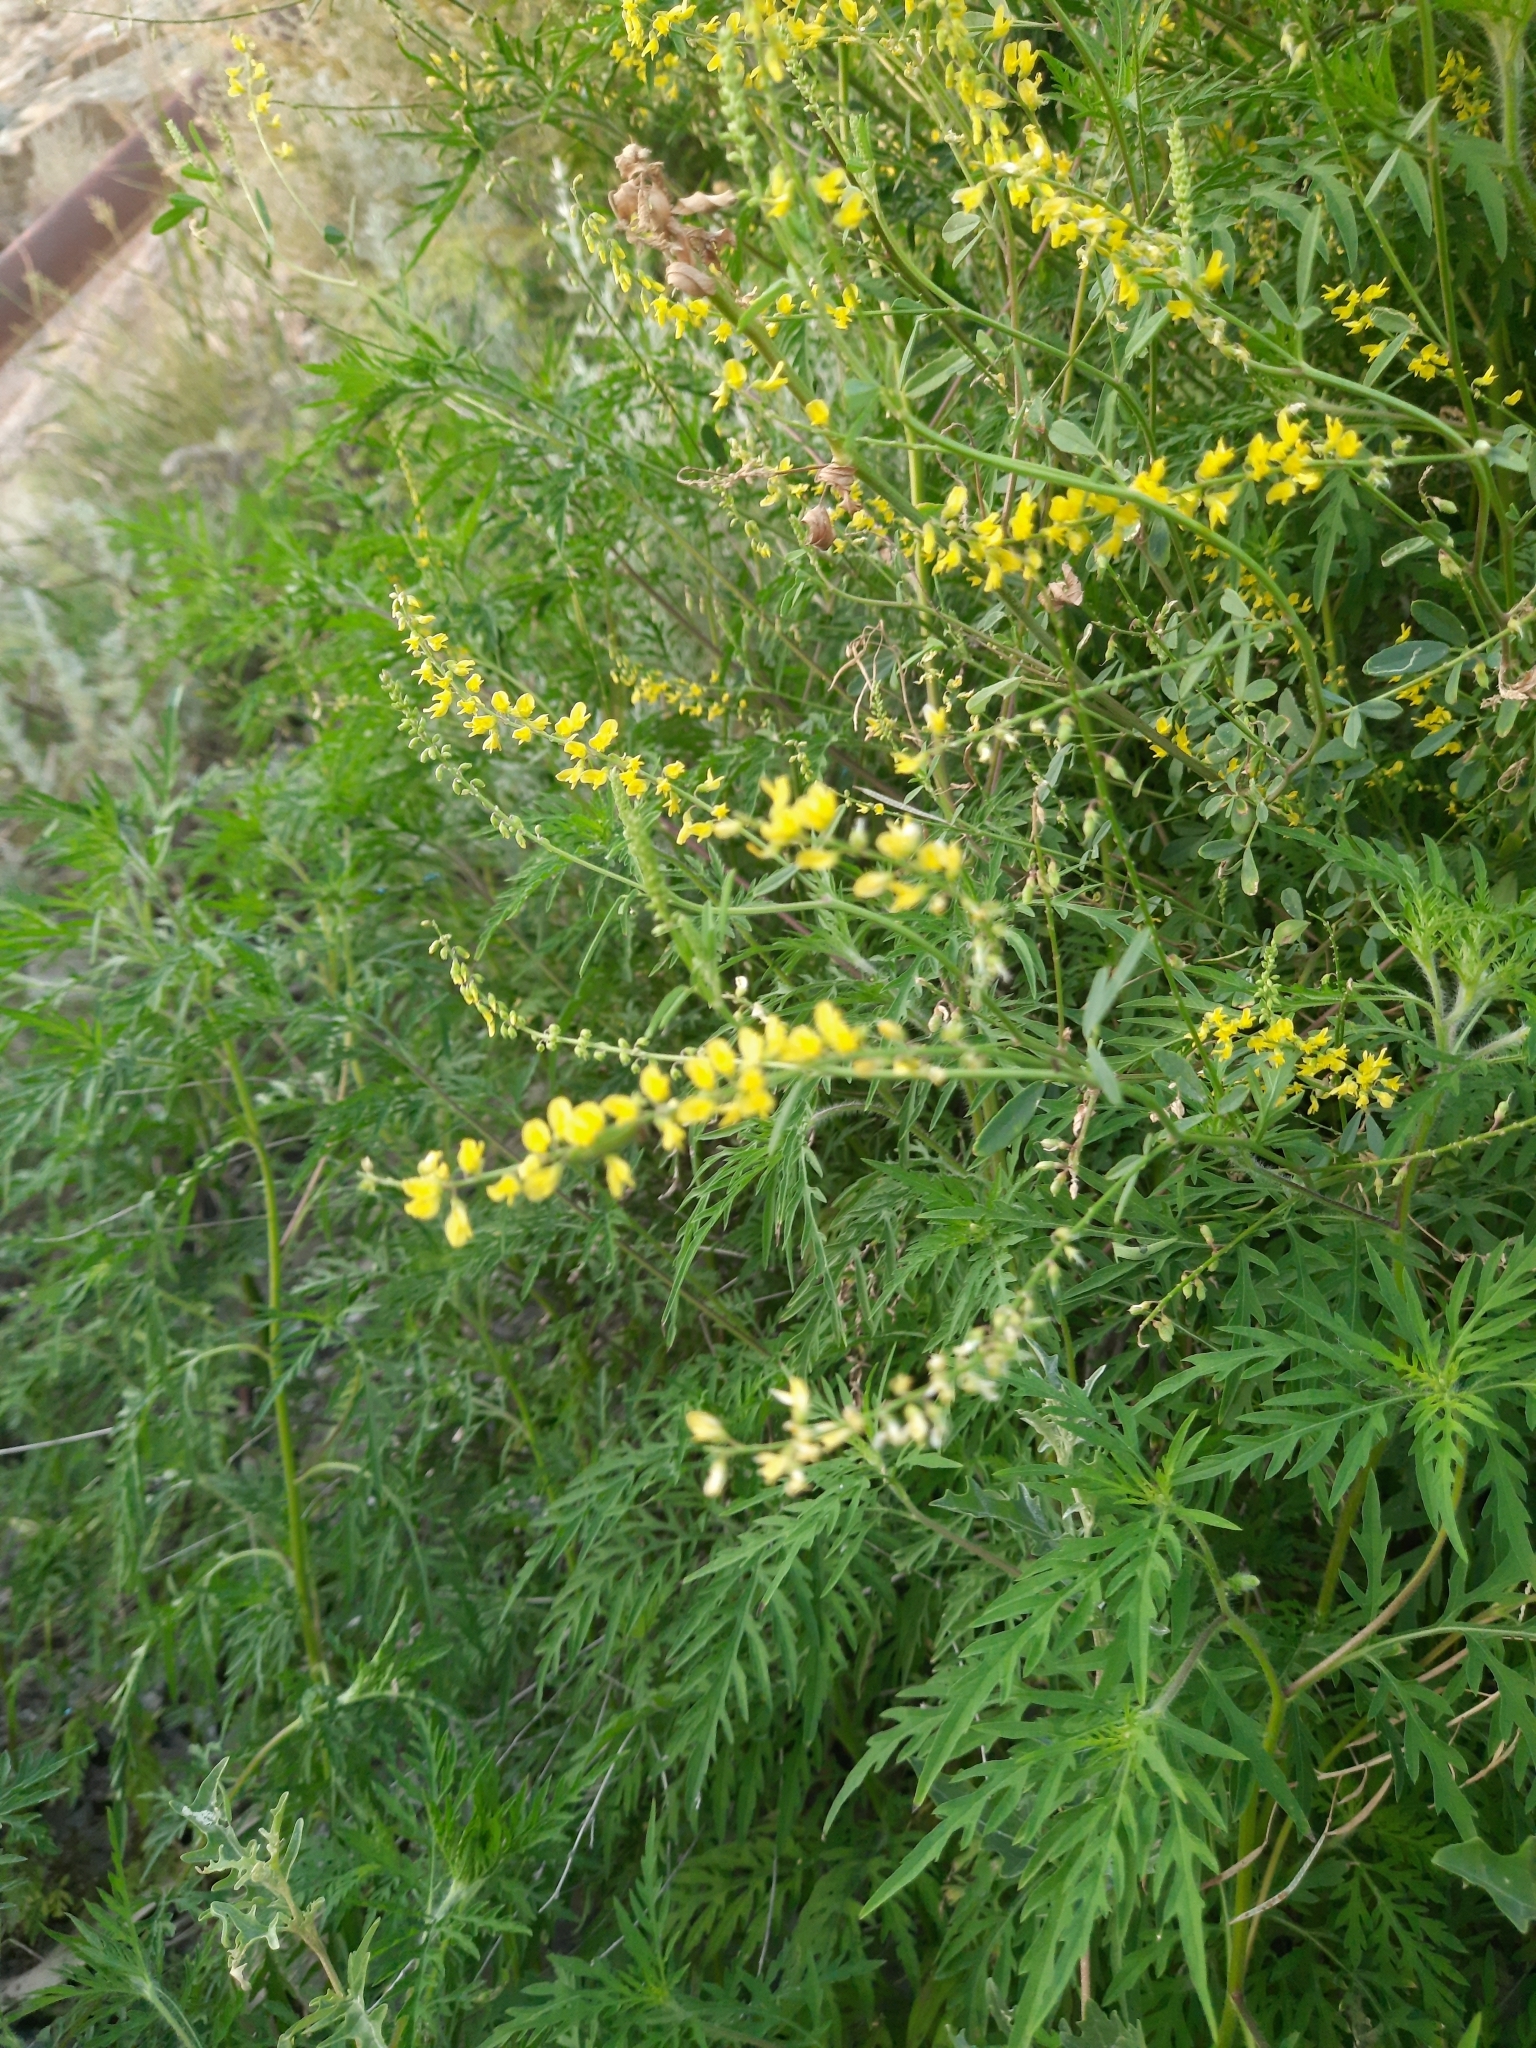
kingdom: Plantae
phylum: Tracheophyta
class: Magnoliopsida
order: Fabales
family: Fabaceae
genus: Melilotus
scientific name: Melilotus officinalis
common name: Sweetclover
